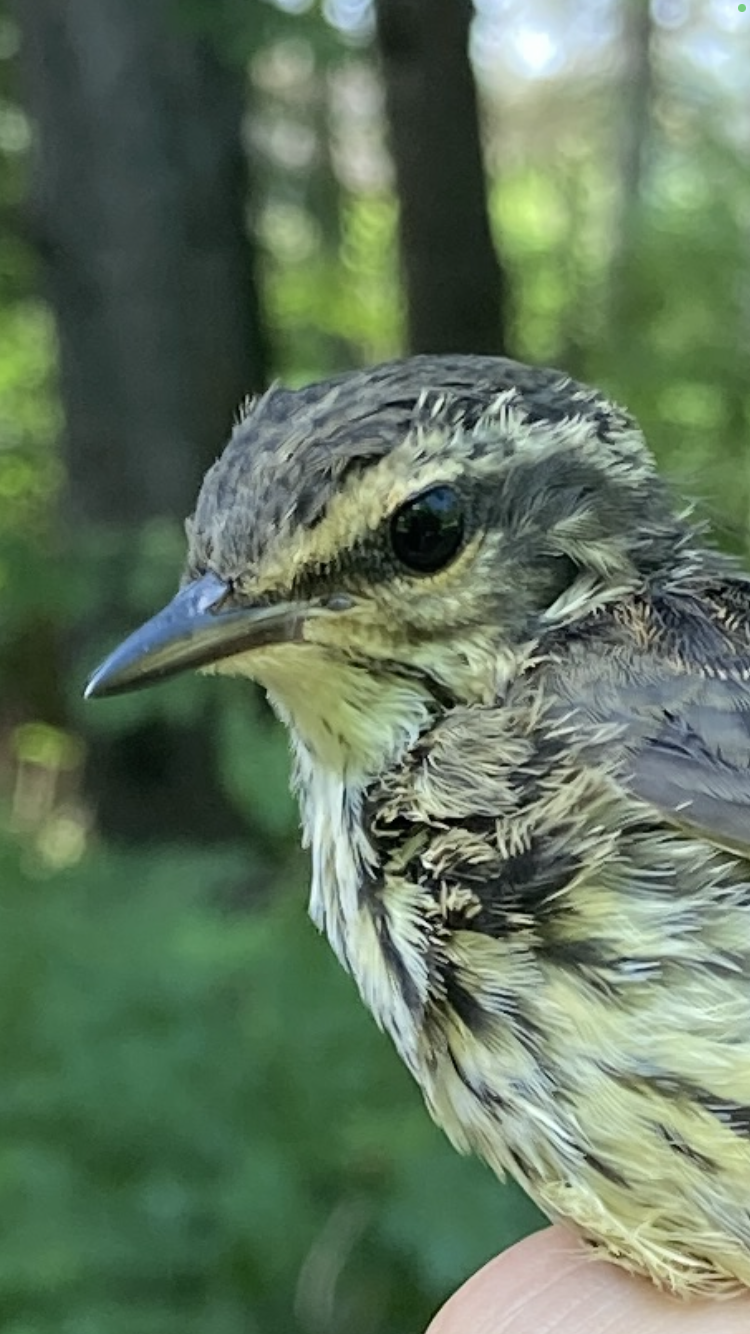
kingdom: Animalia
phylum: Chordata
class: Aves
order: Passeriformes
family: Parulidae
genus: Parkesia
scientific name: Parkesia noveboracensis
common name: Northern waterthrush
